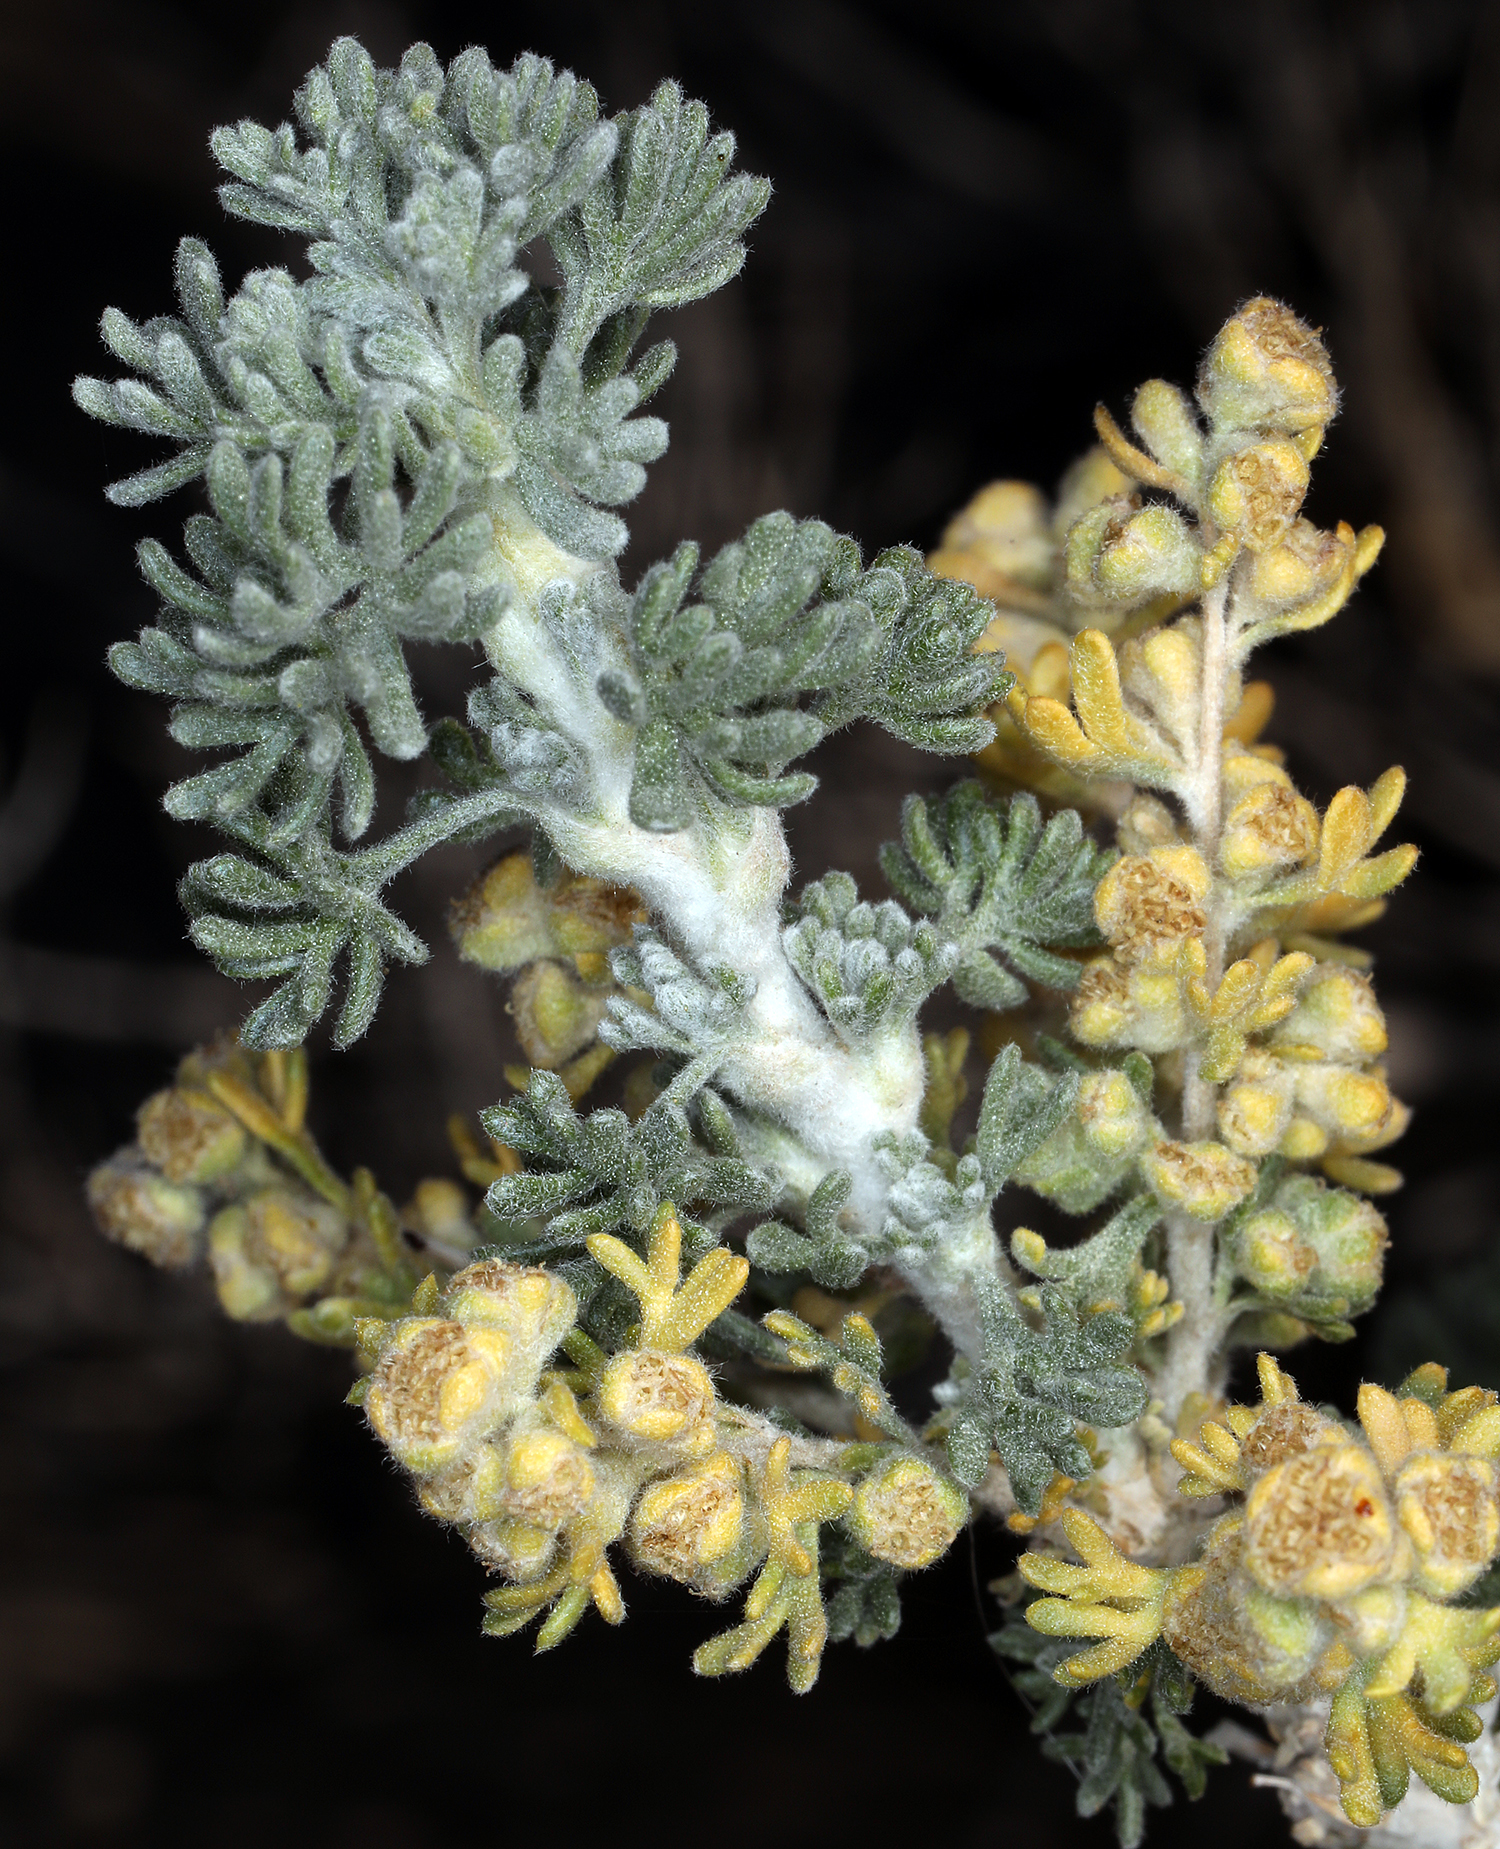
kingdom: Plantae
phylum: Tracheophyta
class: Magnoliopsida
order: Asterales
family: Asteraceae
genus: Artemisia
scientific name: Artemisia spinescens
